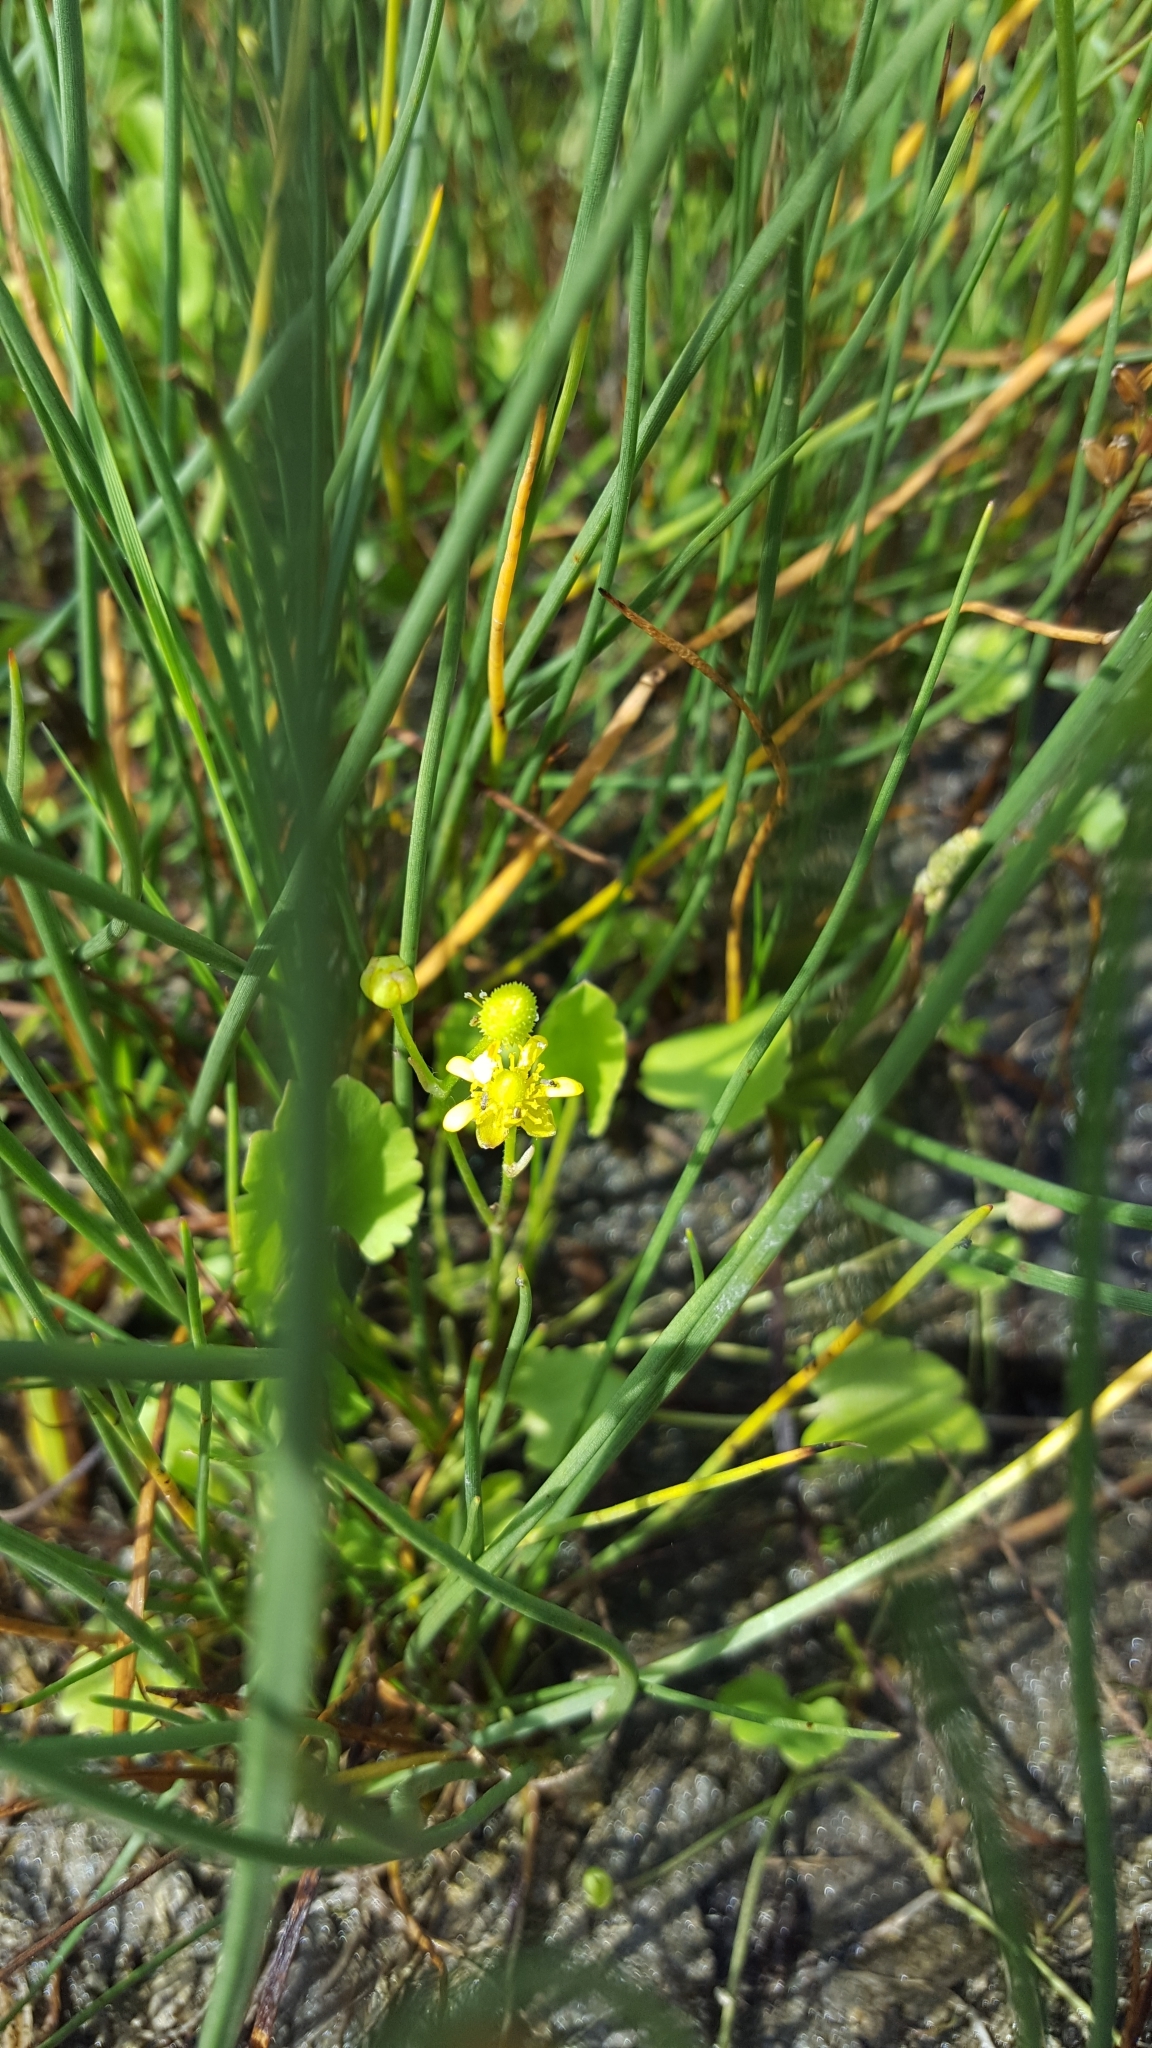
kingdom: Plantae
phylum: Tracheophyta
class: Magnoliopsida
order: Ranunculales
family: Ranunculaceae
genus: Halerpestes
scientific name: Halerpestes cymbalaria
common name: Seaside crowfoot
